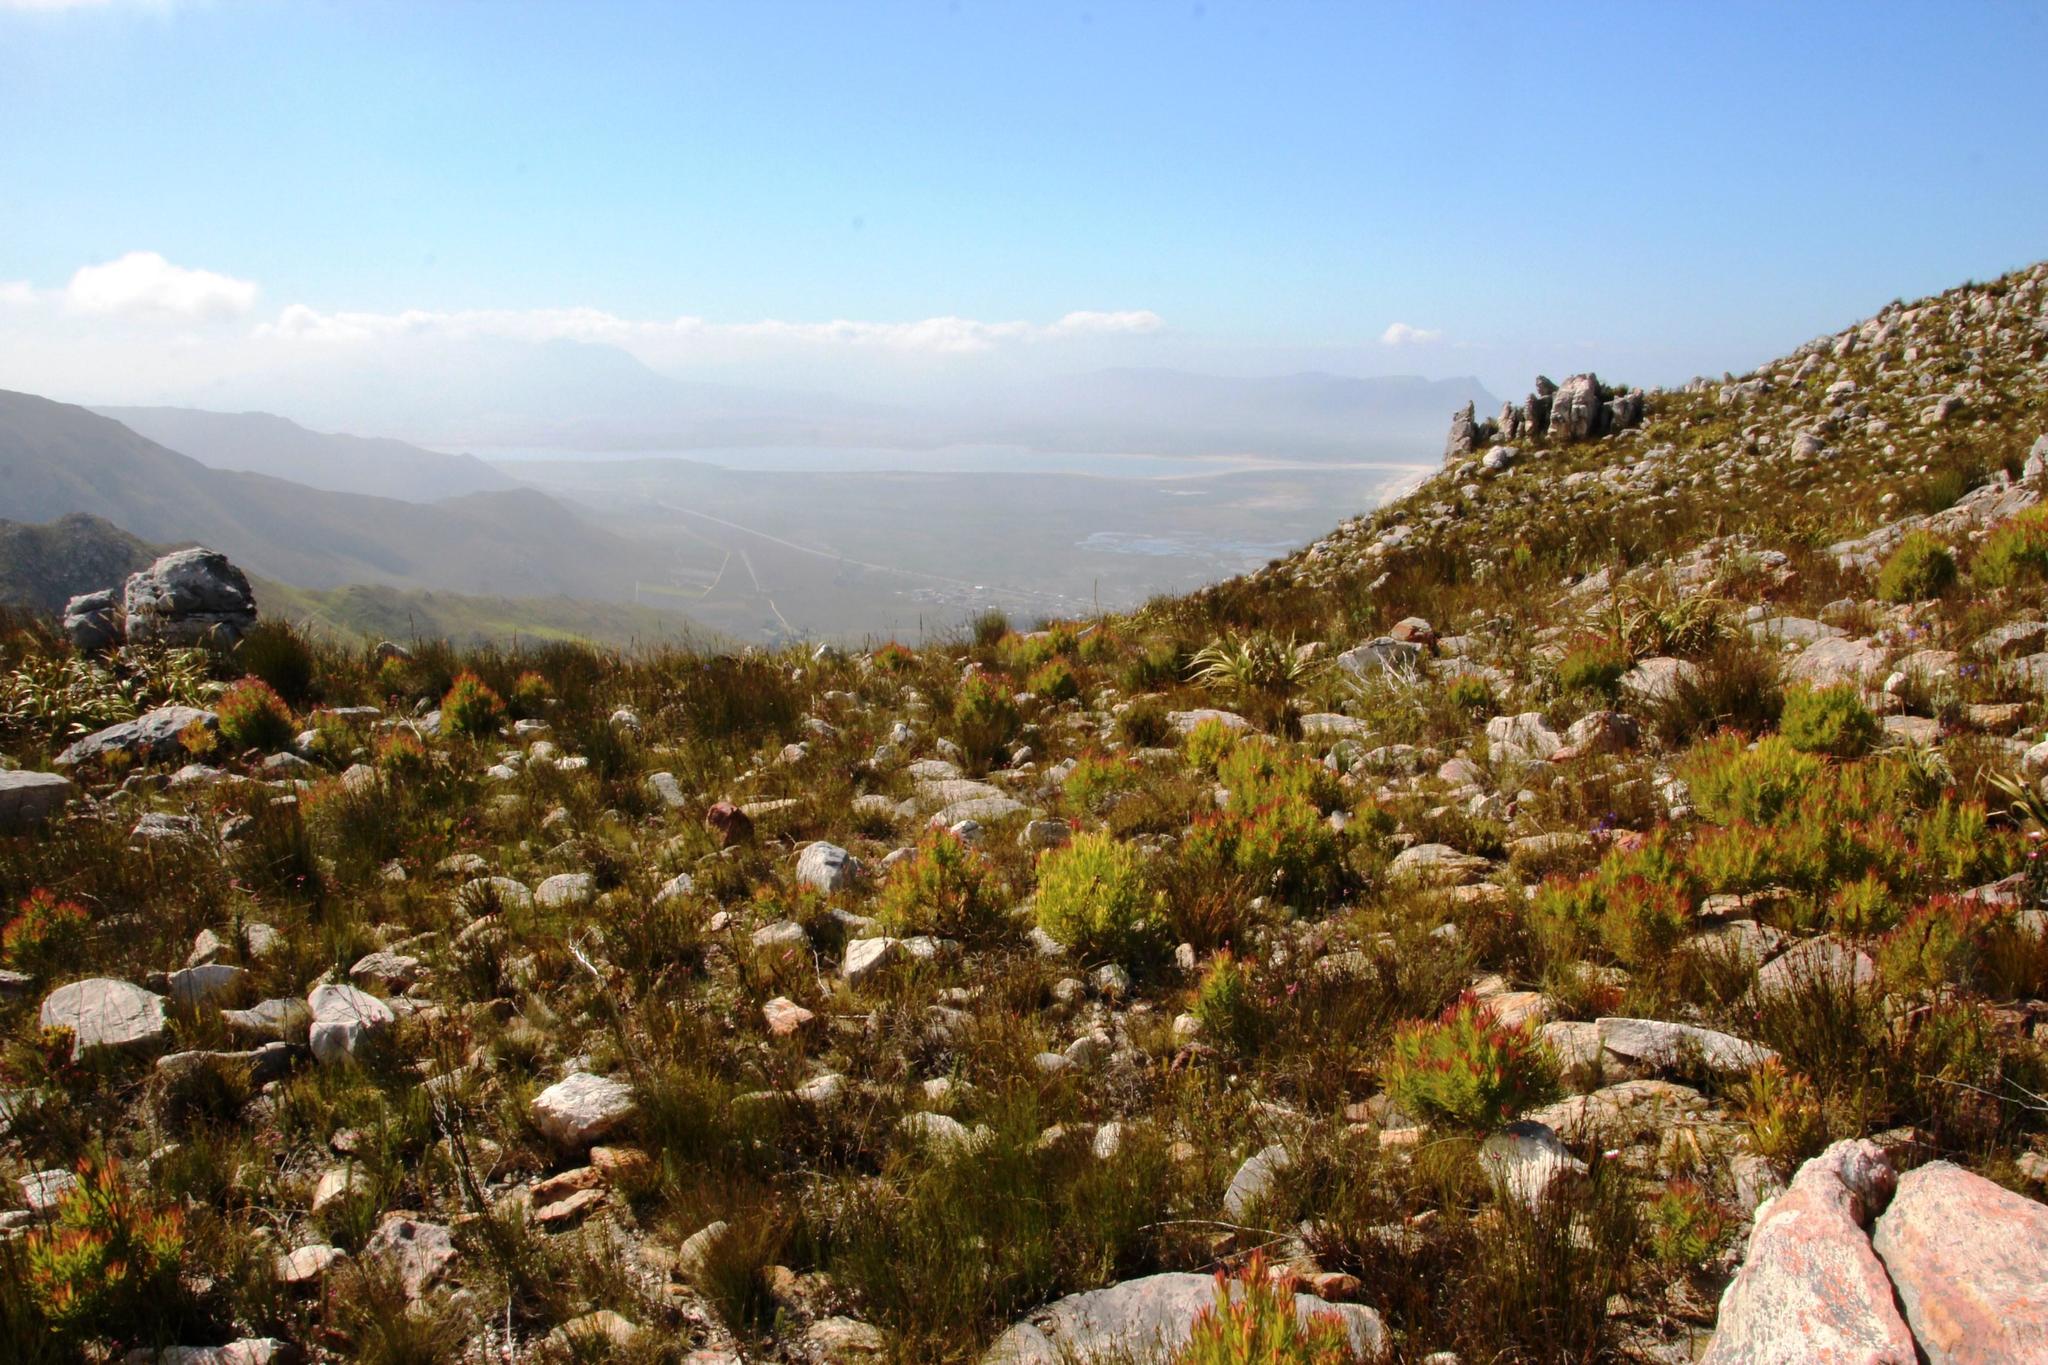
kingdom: Plantae
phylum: Tracheophyta
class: Magnoliopsida
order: Proteales
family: Proteaceae
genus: Leucadendron
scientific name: Leucadendron xanthoconus
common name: Sickle-leaf conebush
